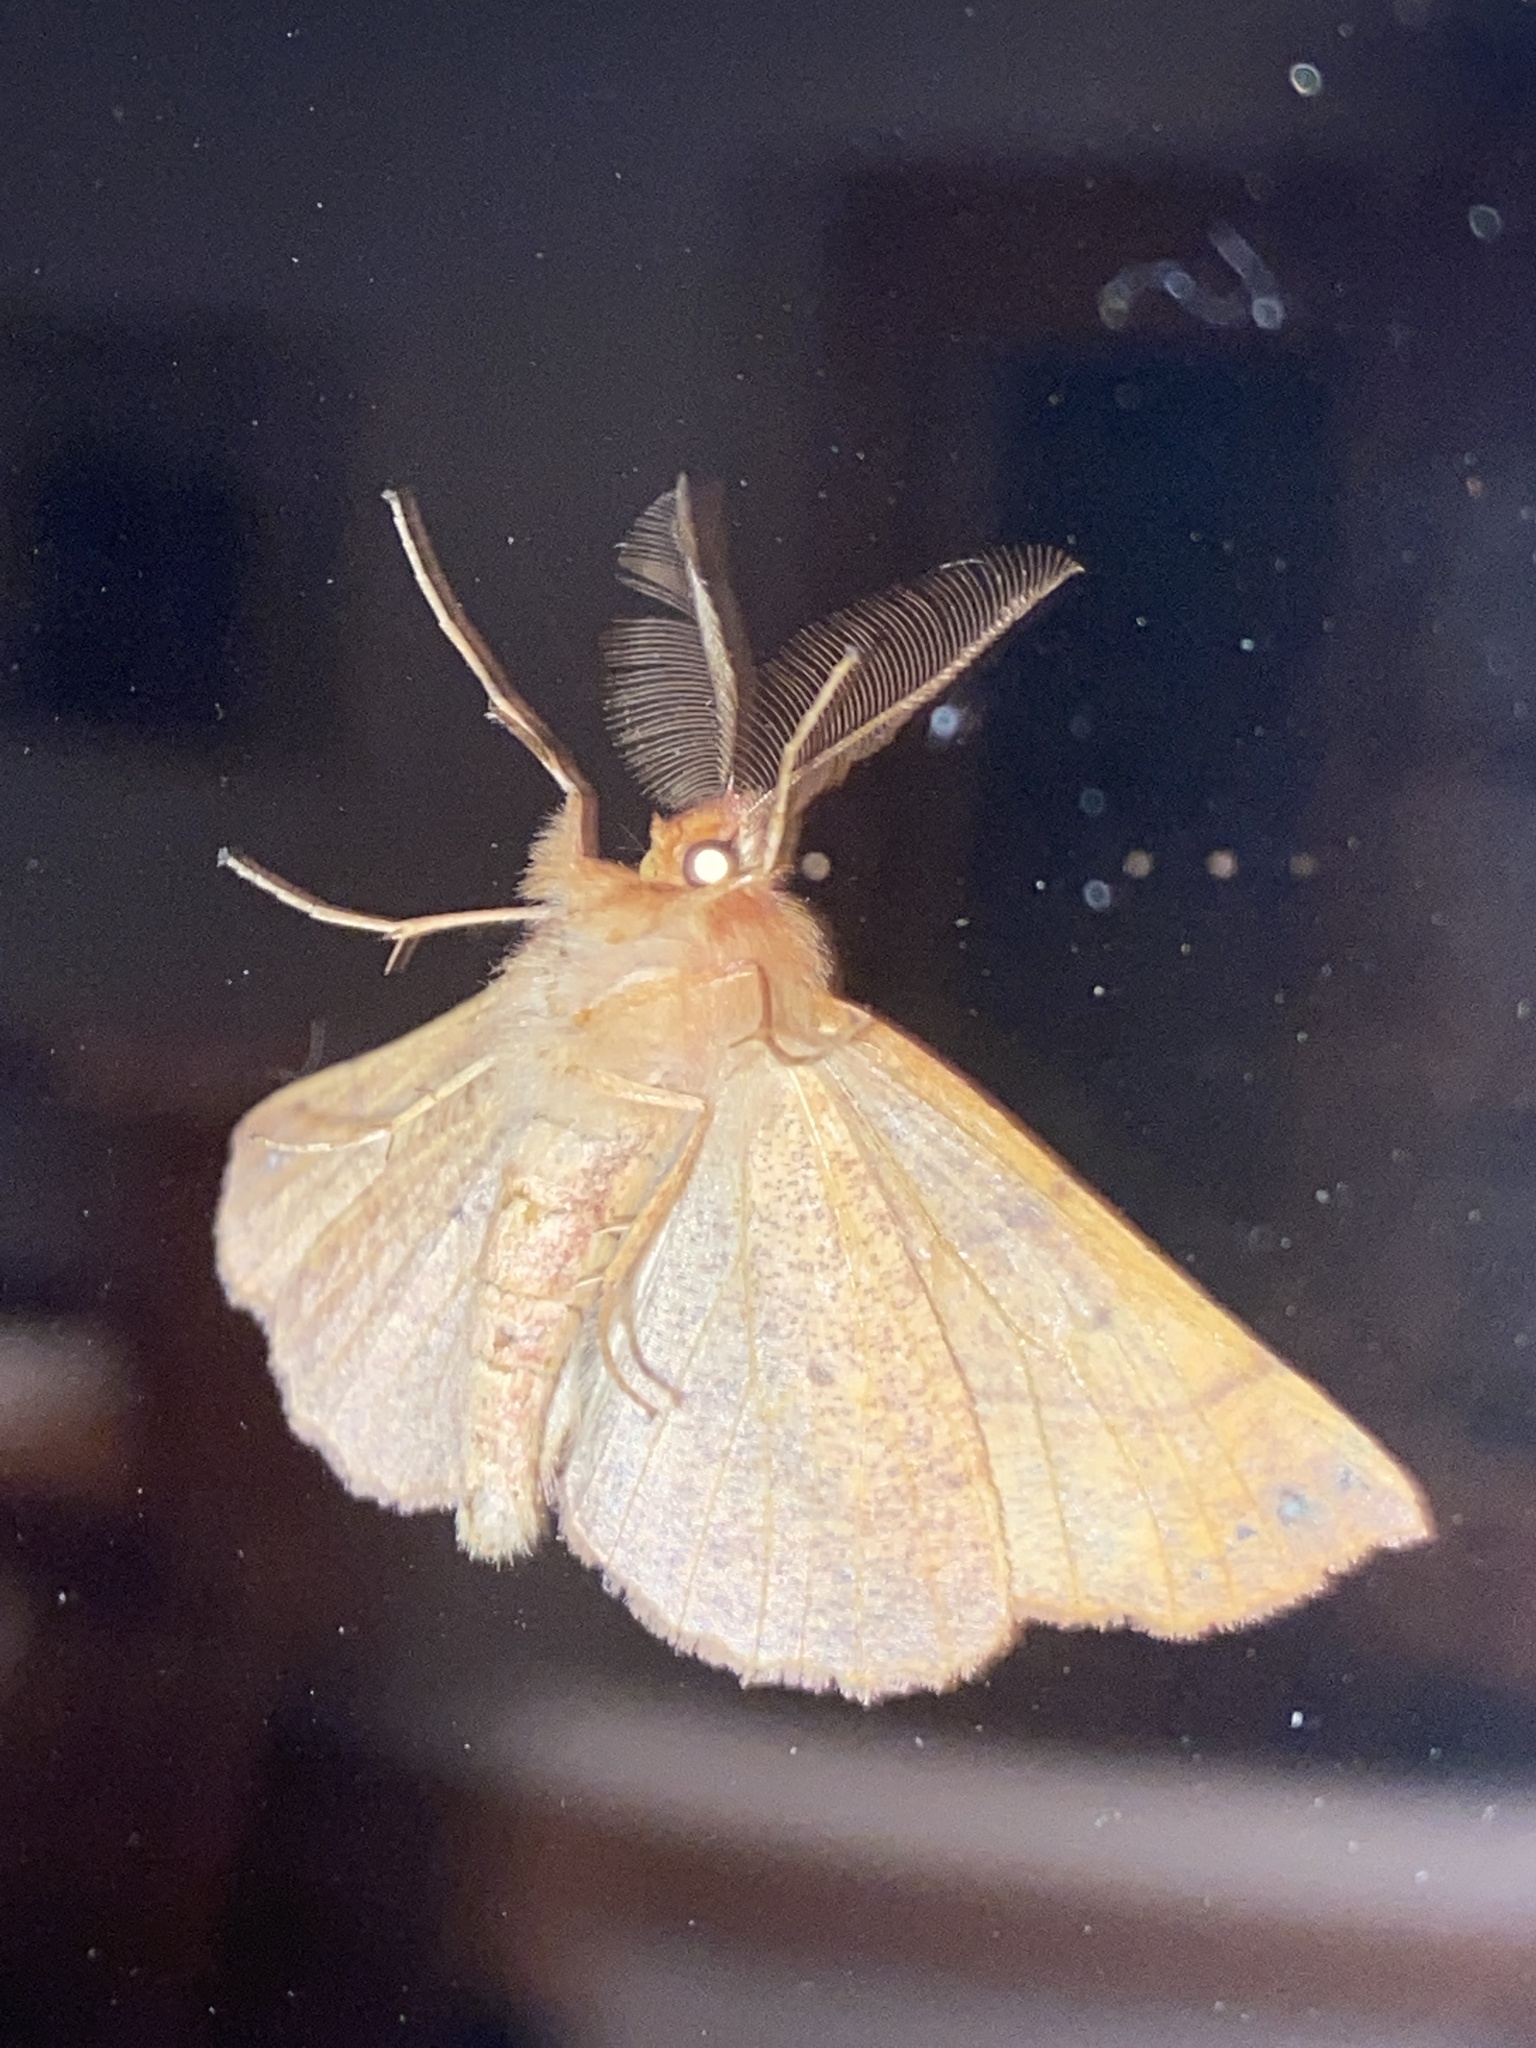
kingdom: Animalia
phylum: Arthropoda
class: Insecta
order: Lepidoptera
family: Geometridae
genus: Colotois
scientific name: Colotois pennaria
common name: Feathered thorn
